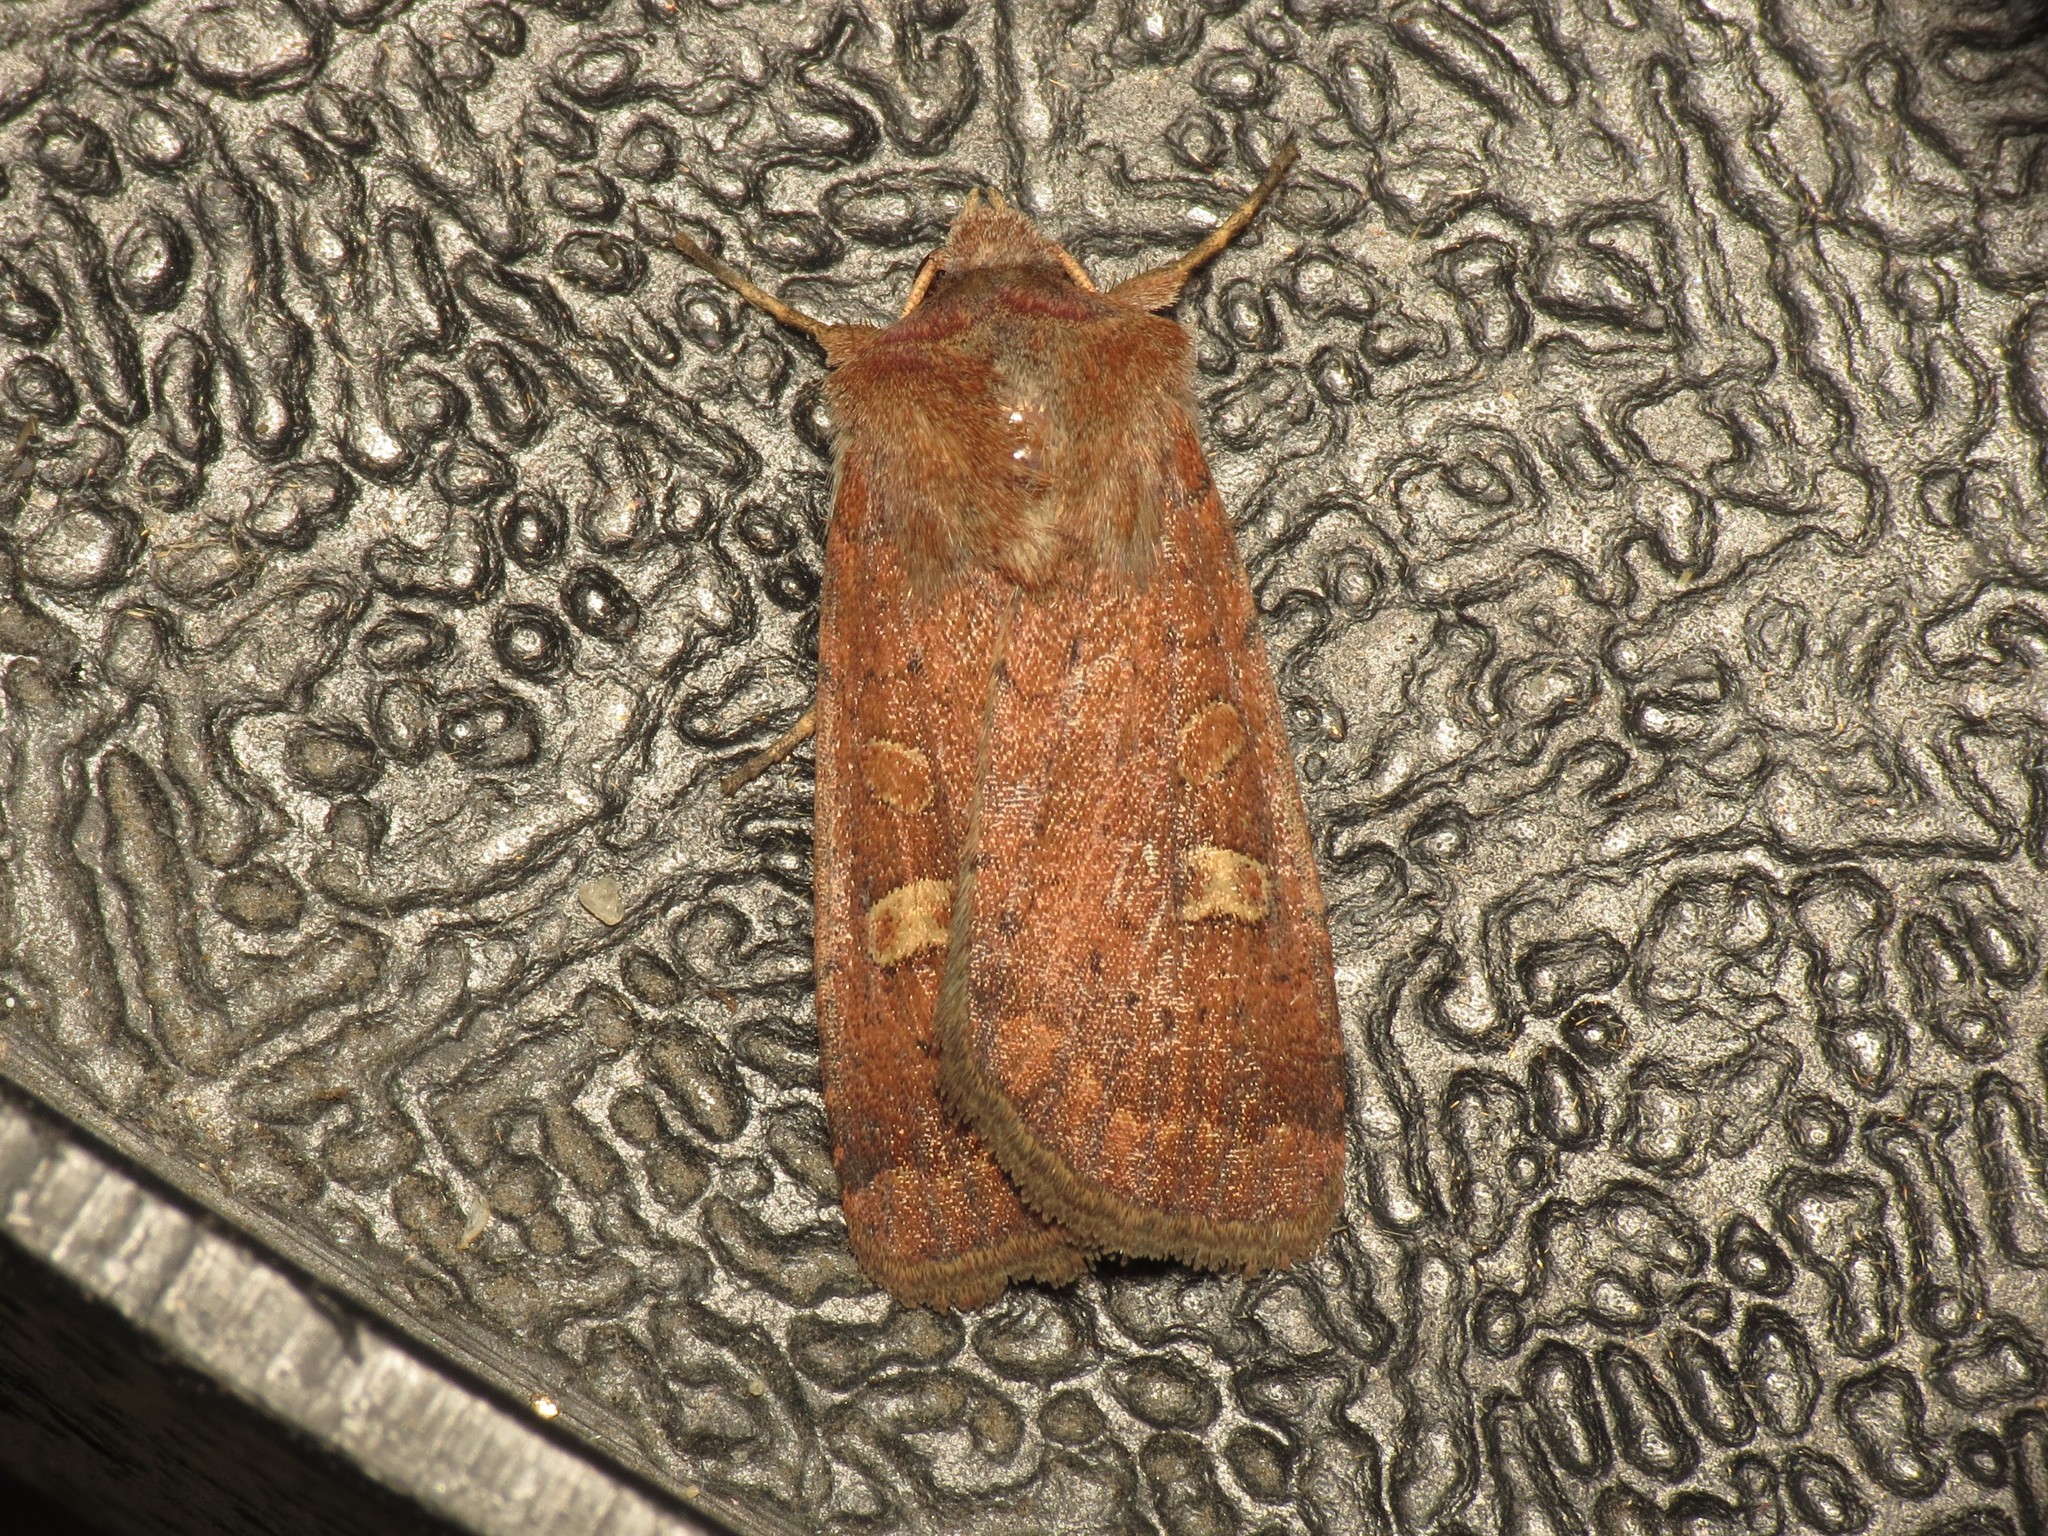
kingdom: Animalia
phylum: Arthropoda
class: Insecta
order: Lepidoptera
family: Noctuidae
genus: Xestia
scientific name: Xestia xanthographa
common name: Square-spot rustic
